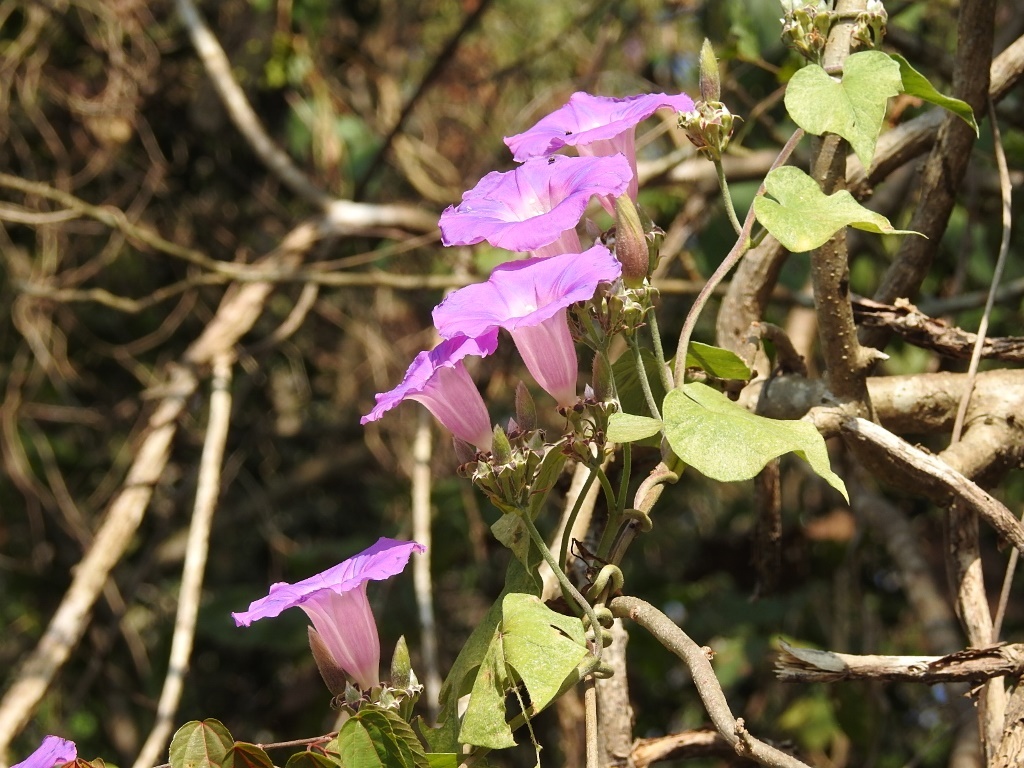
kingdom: Plantae
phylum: Tracheophyta
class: Magnoliopsida
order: Solanales
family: Convolvulaceae
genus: Ipomoea
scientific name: Ipomoea leucotricha
